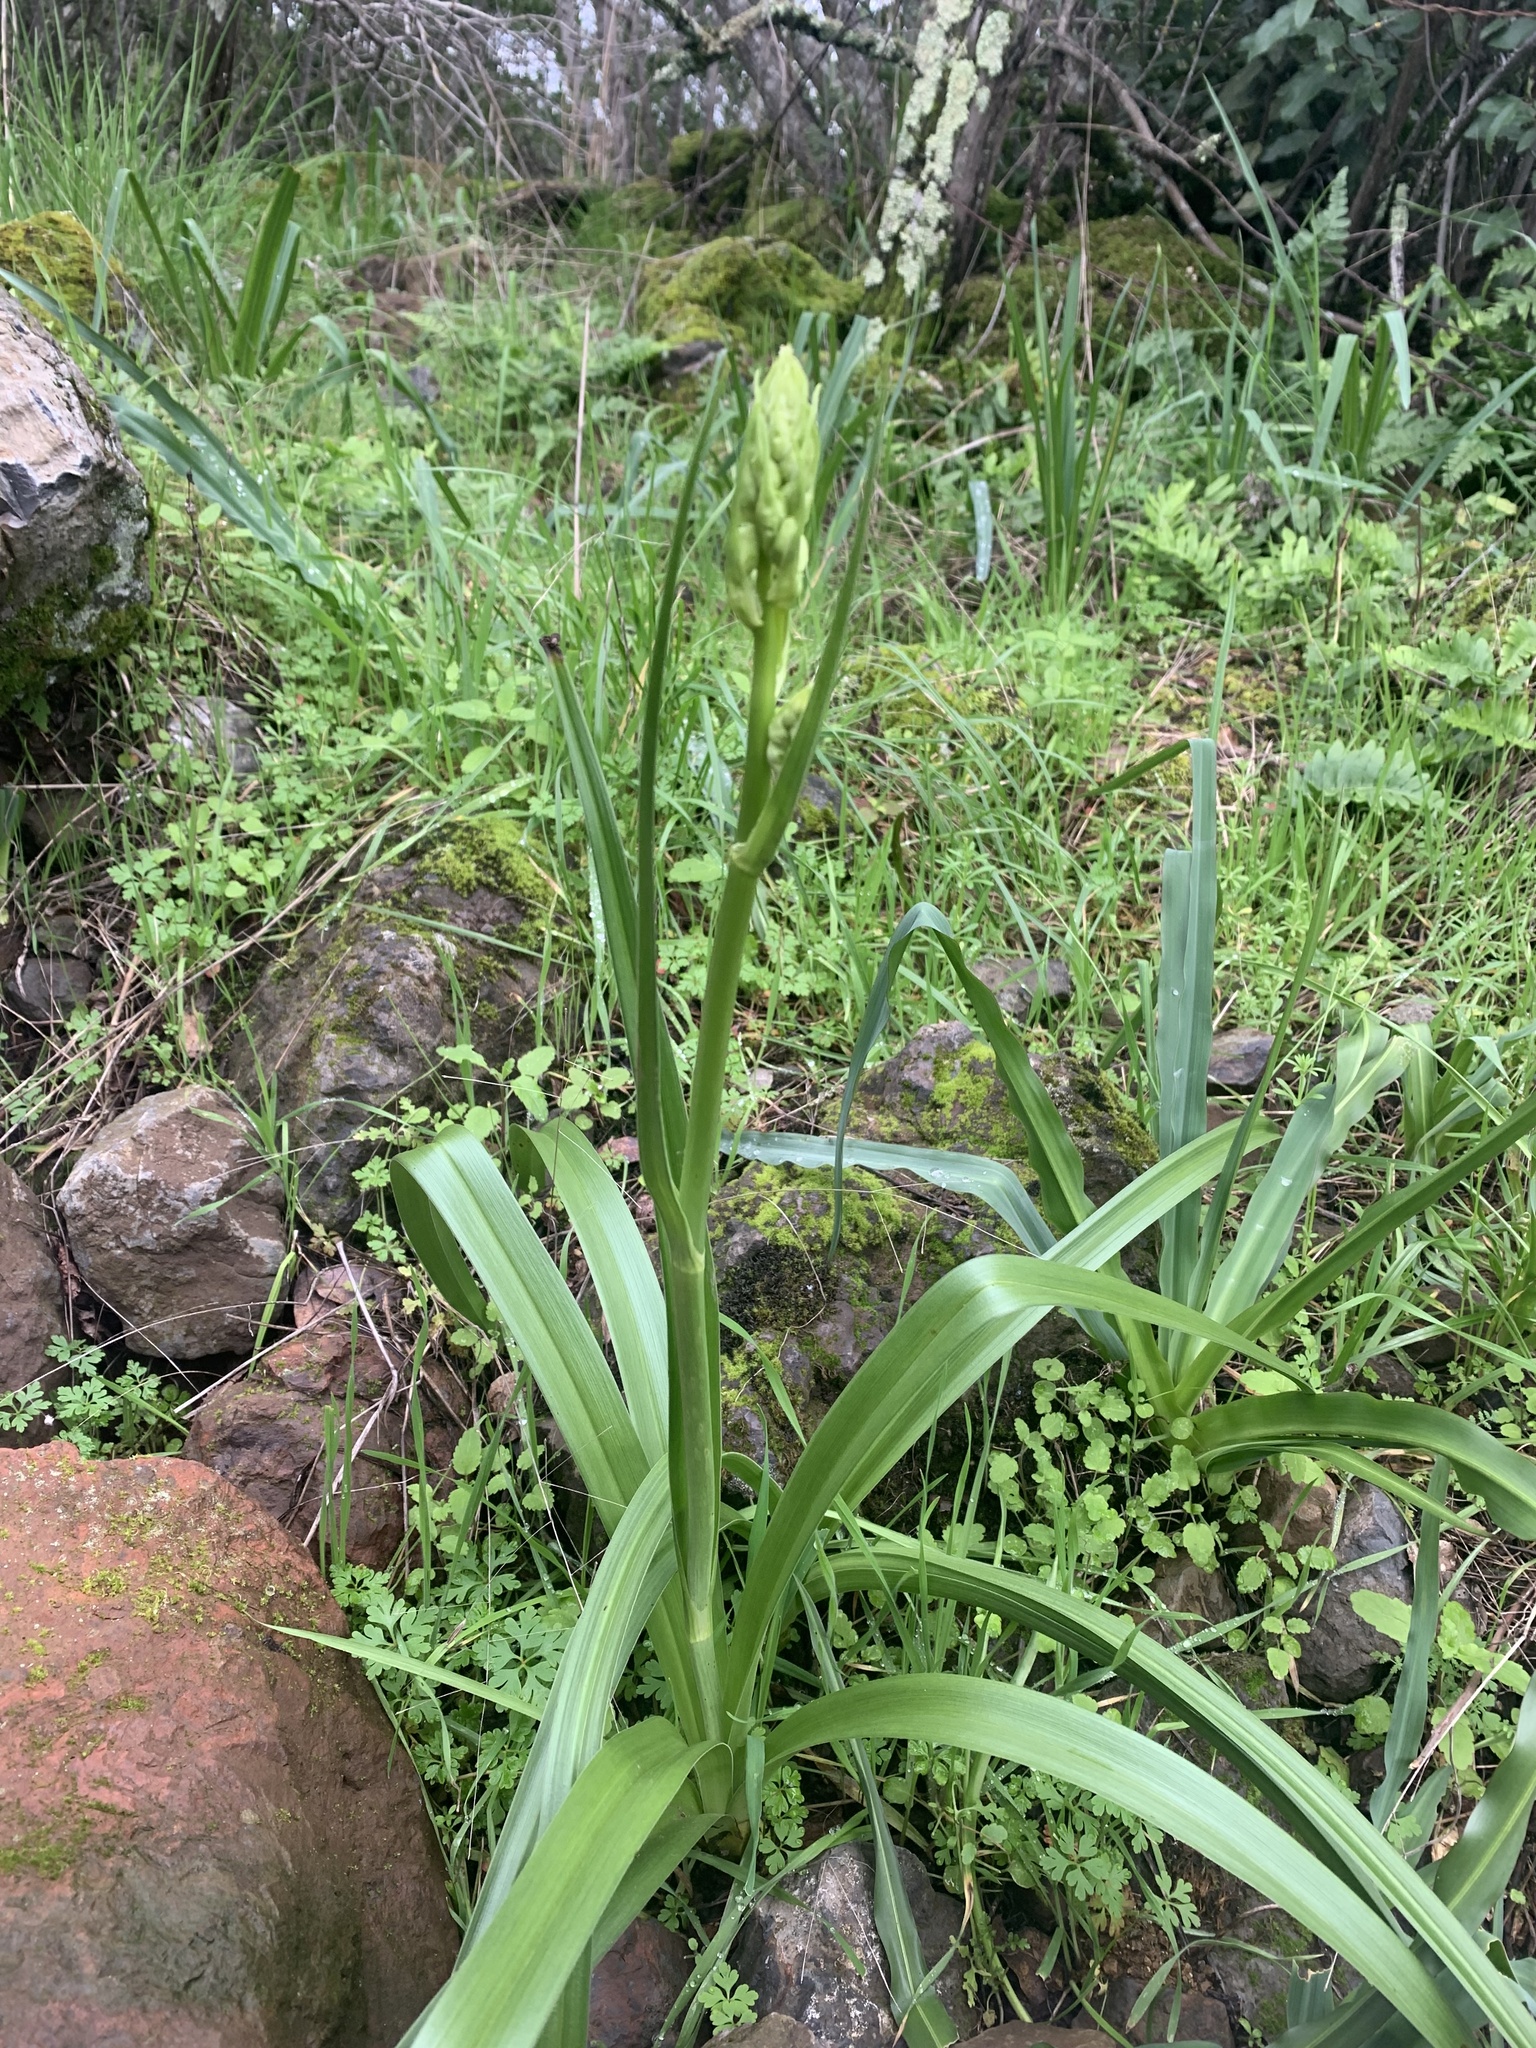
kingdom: Plantae
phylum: Tracheophyta
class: Liliopsida
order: Liliales
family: Melanthiaceae
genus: Toxicoscordion
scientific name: Toxicoscordion fremontii
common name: Fremont's death camas
